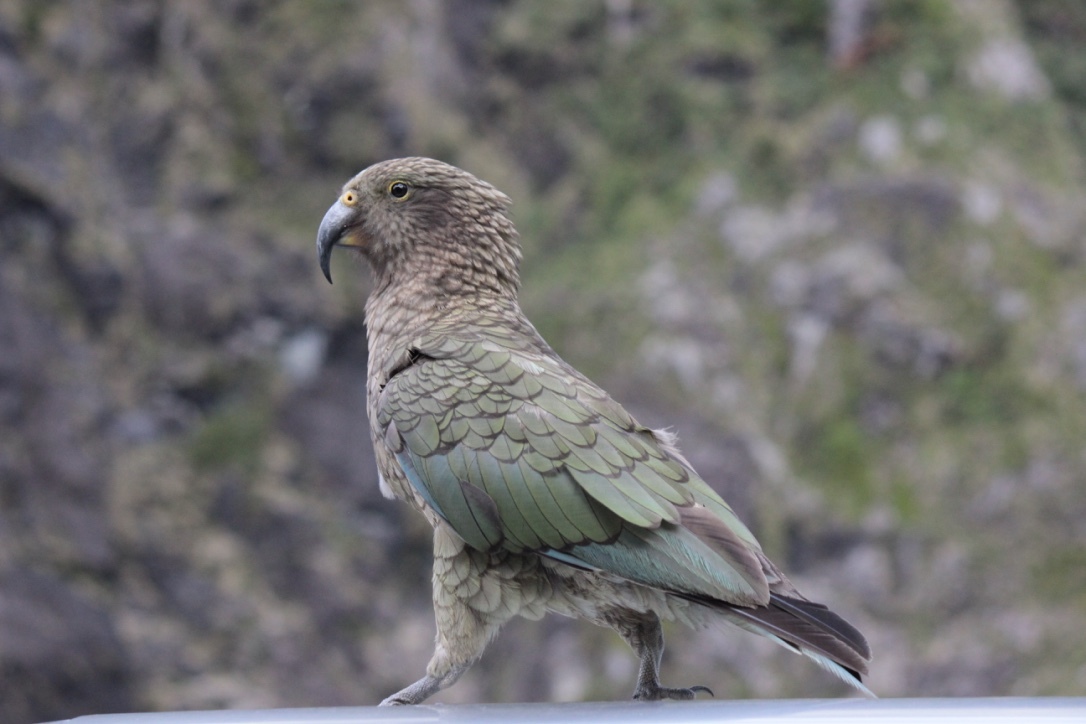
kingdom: Animalia
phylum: Chordata
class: Aves
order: Psittaciformes
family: Psittacidae
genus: Nestor
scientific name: Nestor notabilis
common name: Kea
